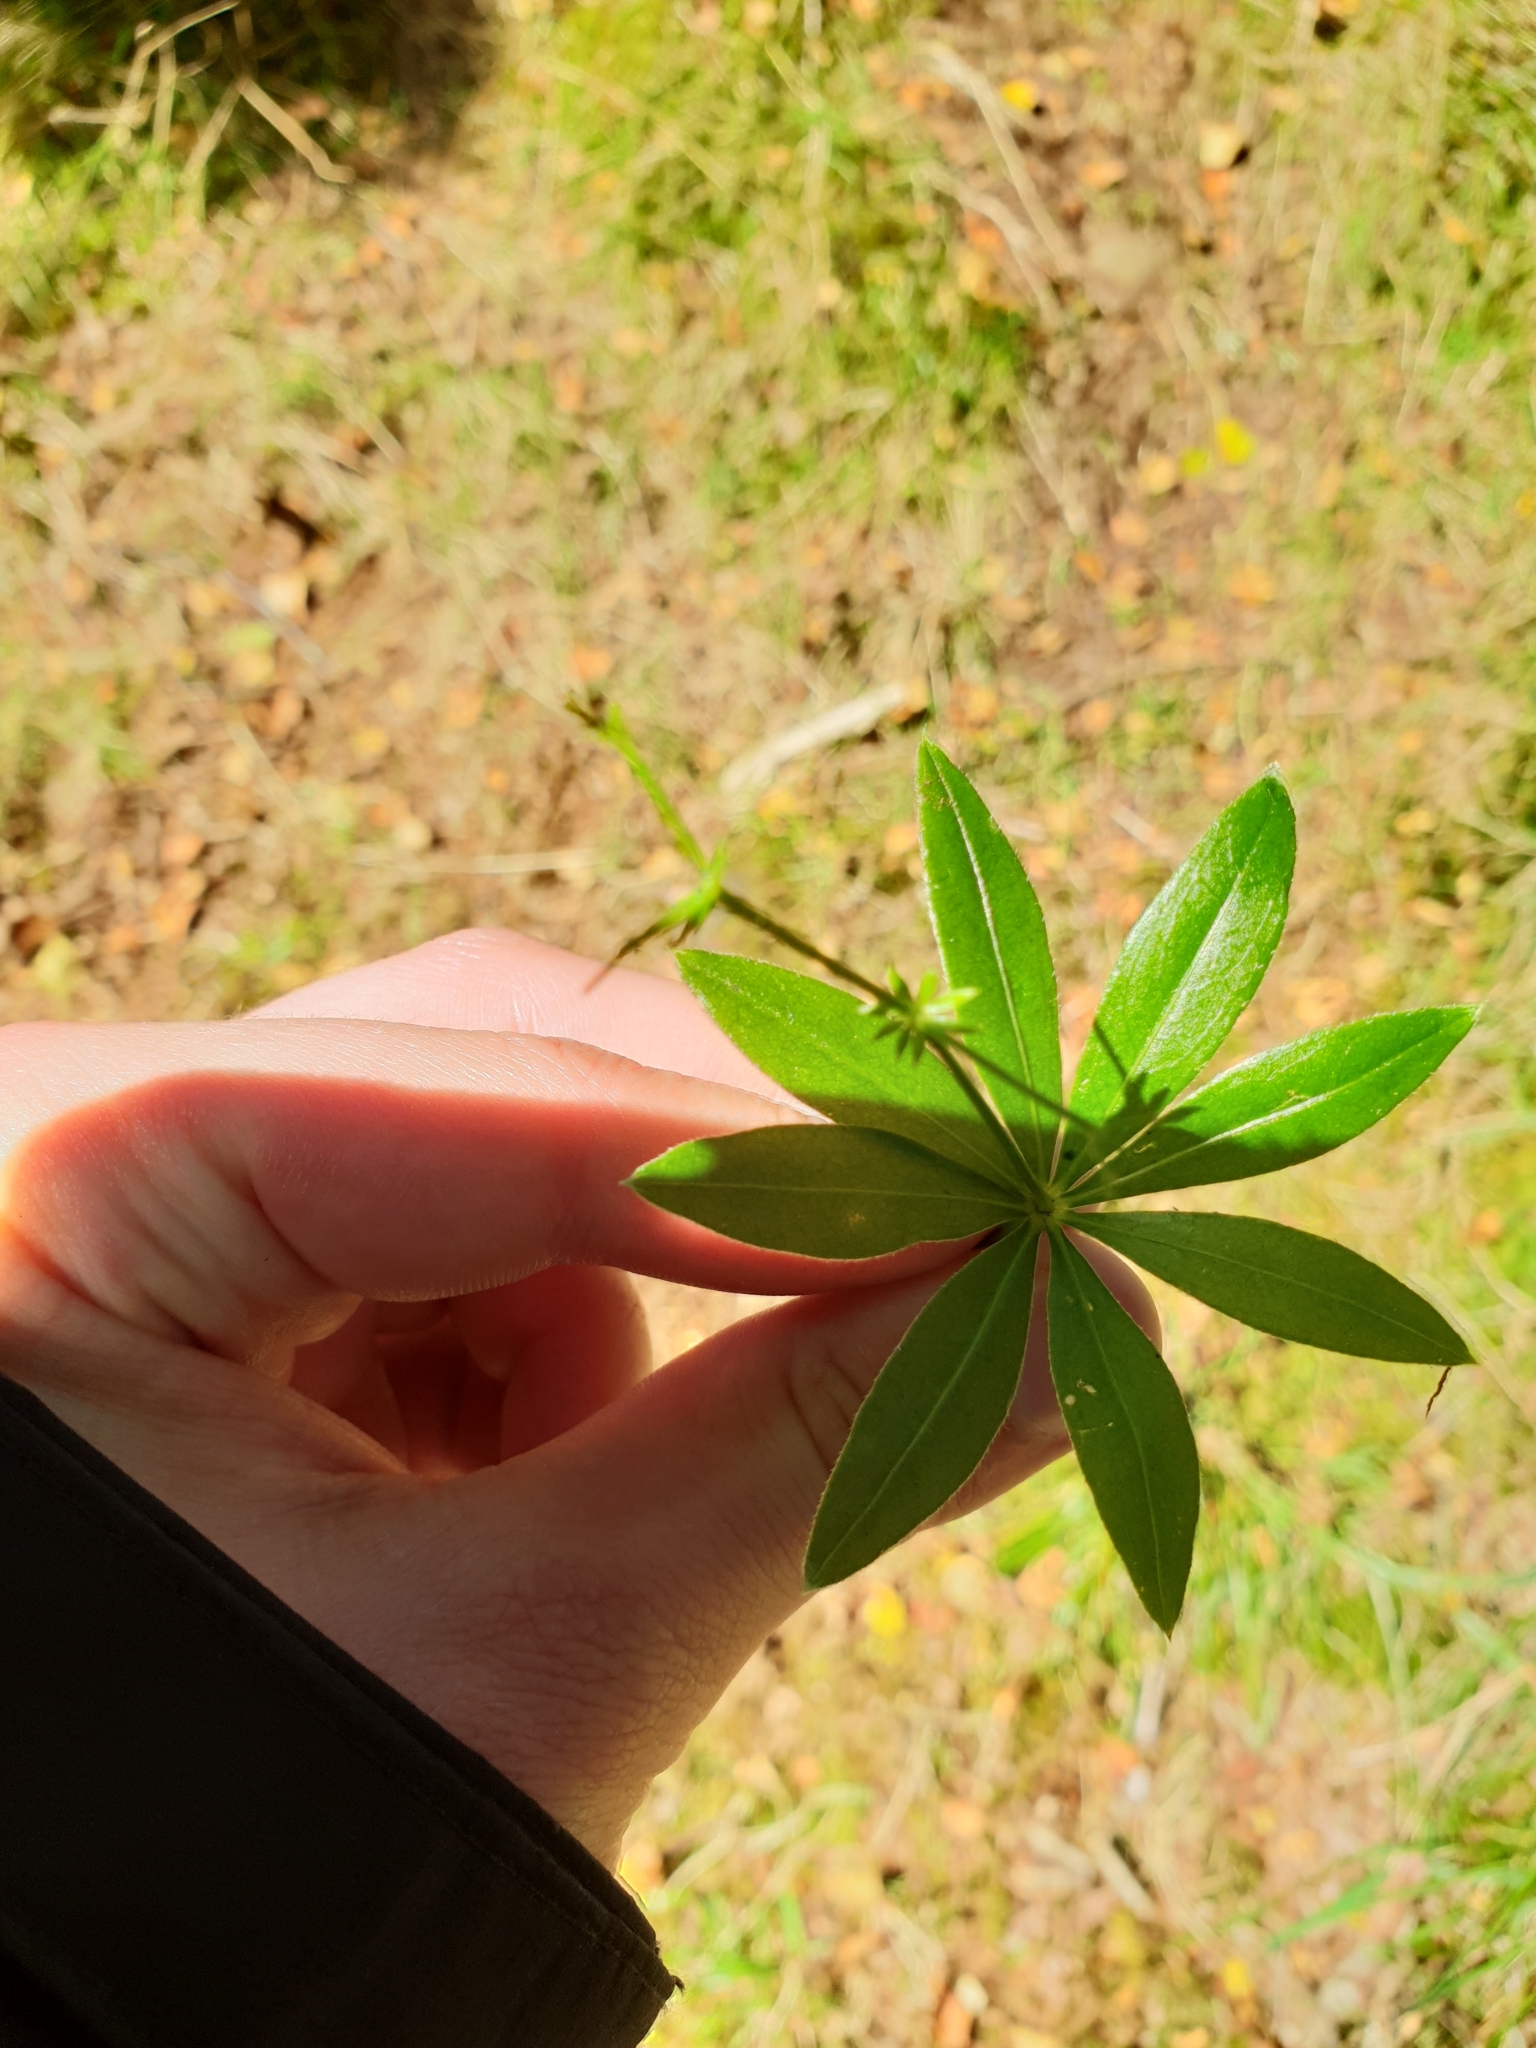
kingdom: Plantae
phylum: Tracheophyta
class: Magnoliopsida
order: Gentianales
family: Rubiaceae
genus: Galium
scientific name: Galium odoratum
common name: Sweet woodruff
